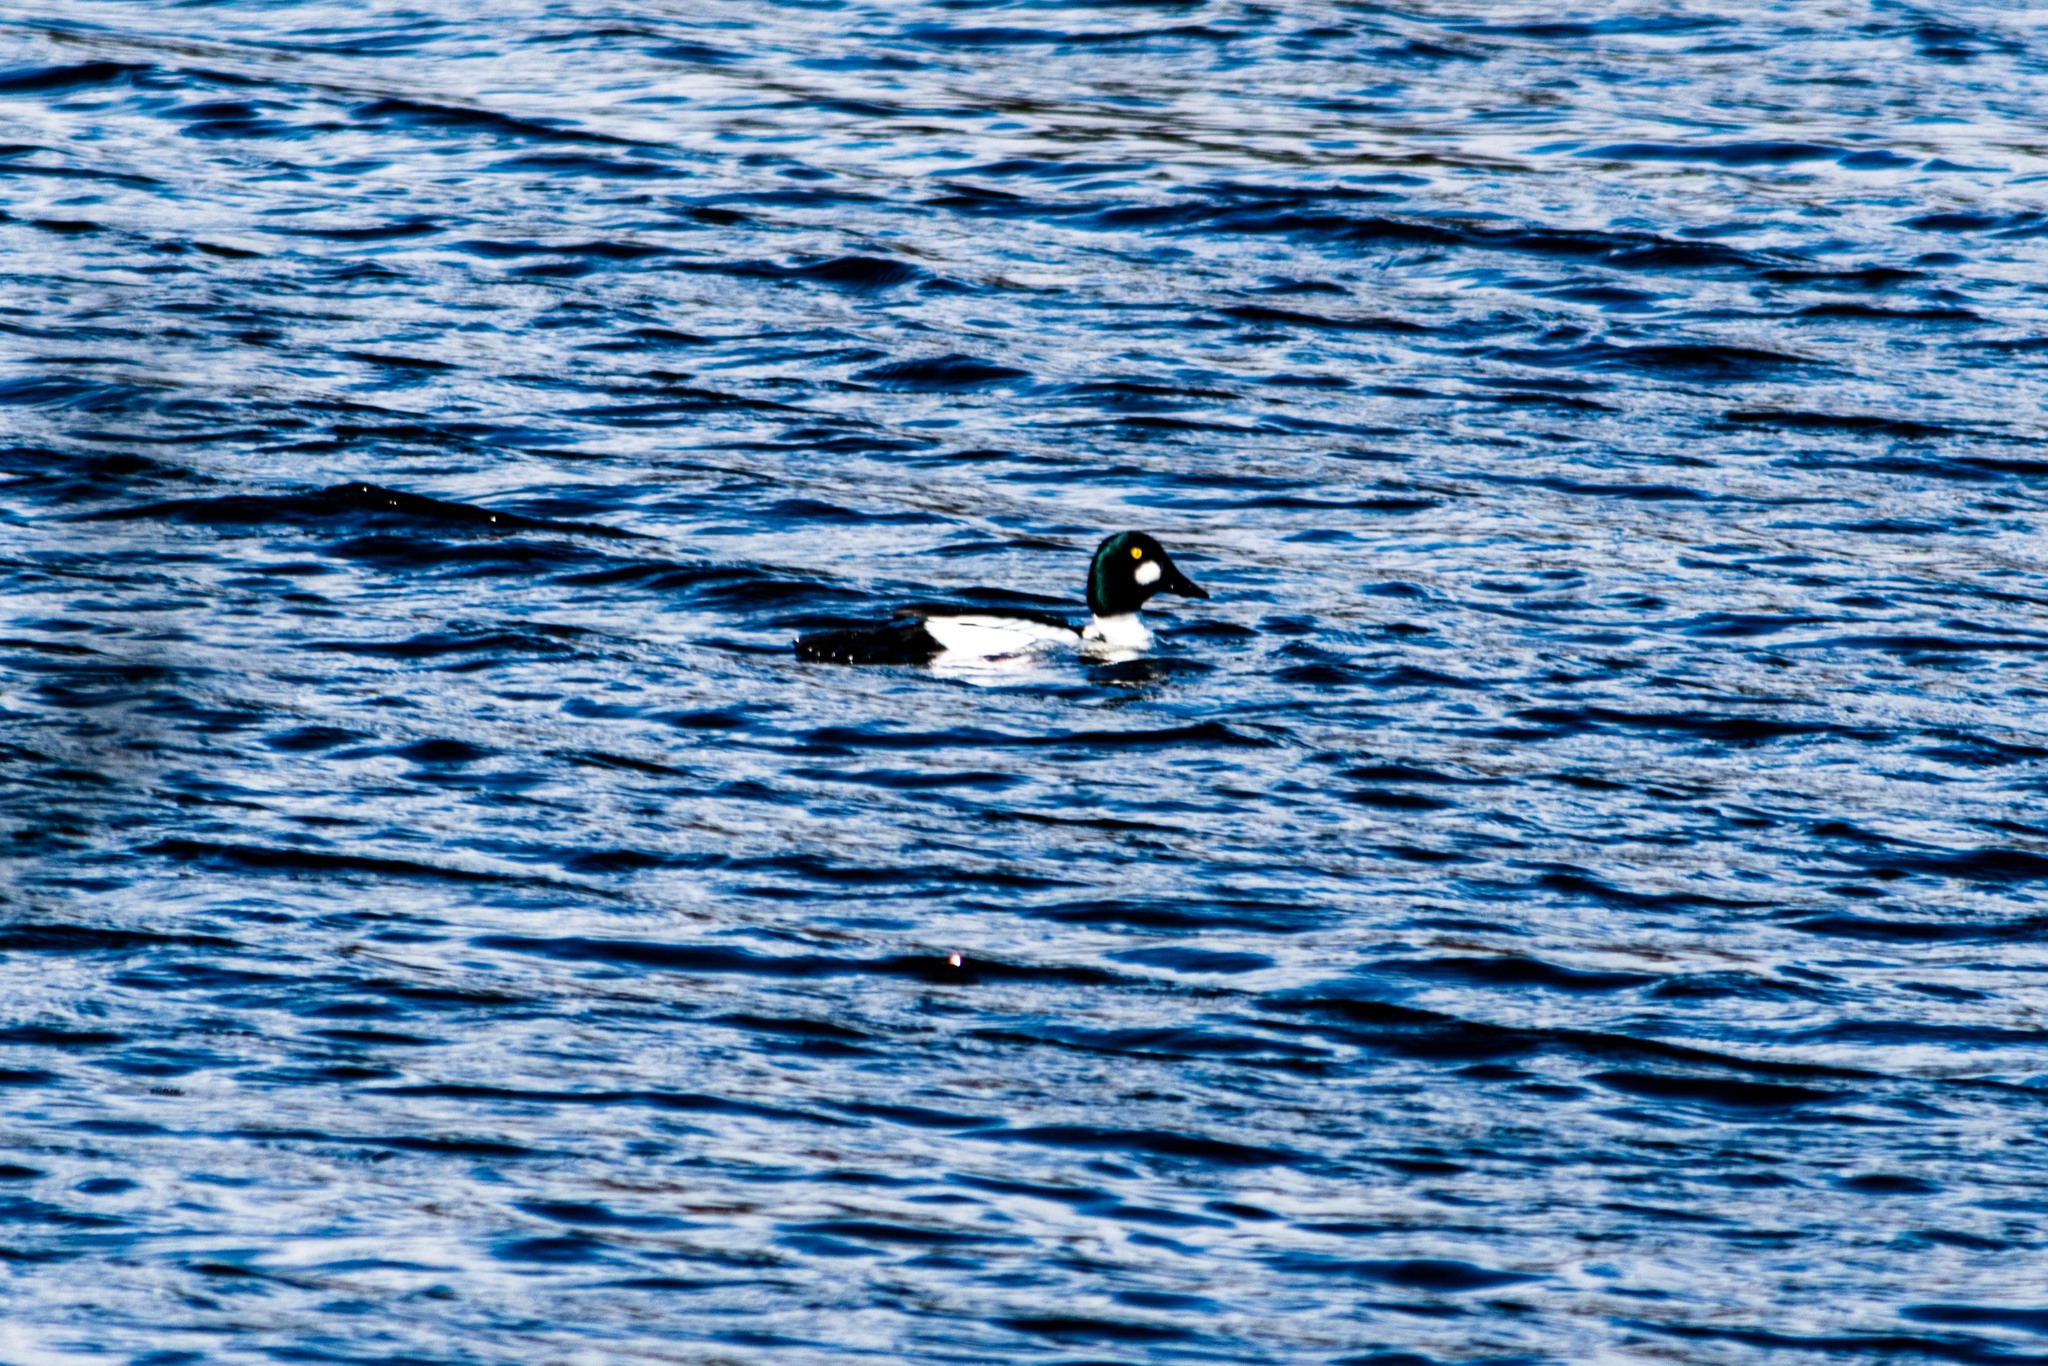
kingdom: Animalia
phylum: Chordata
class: Aves
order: Anseriformes
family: Anatidae
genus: Bucephala
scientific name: Bucephala clangula
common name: Common goldeneye
